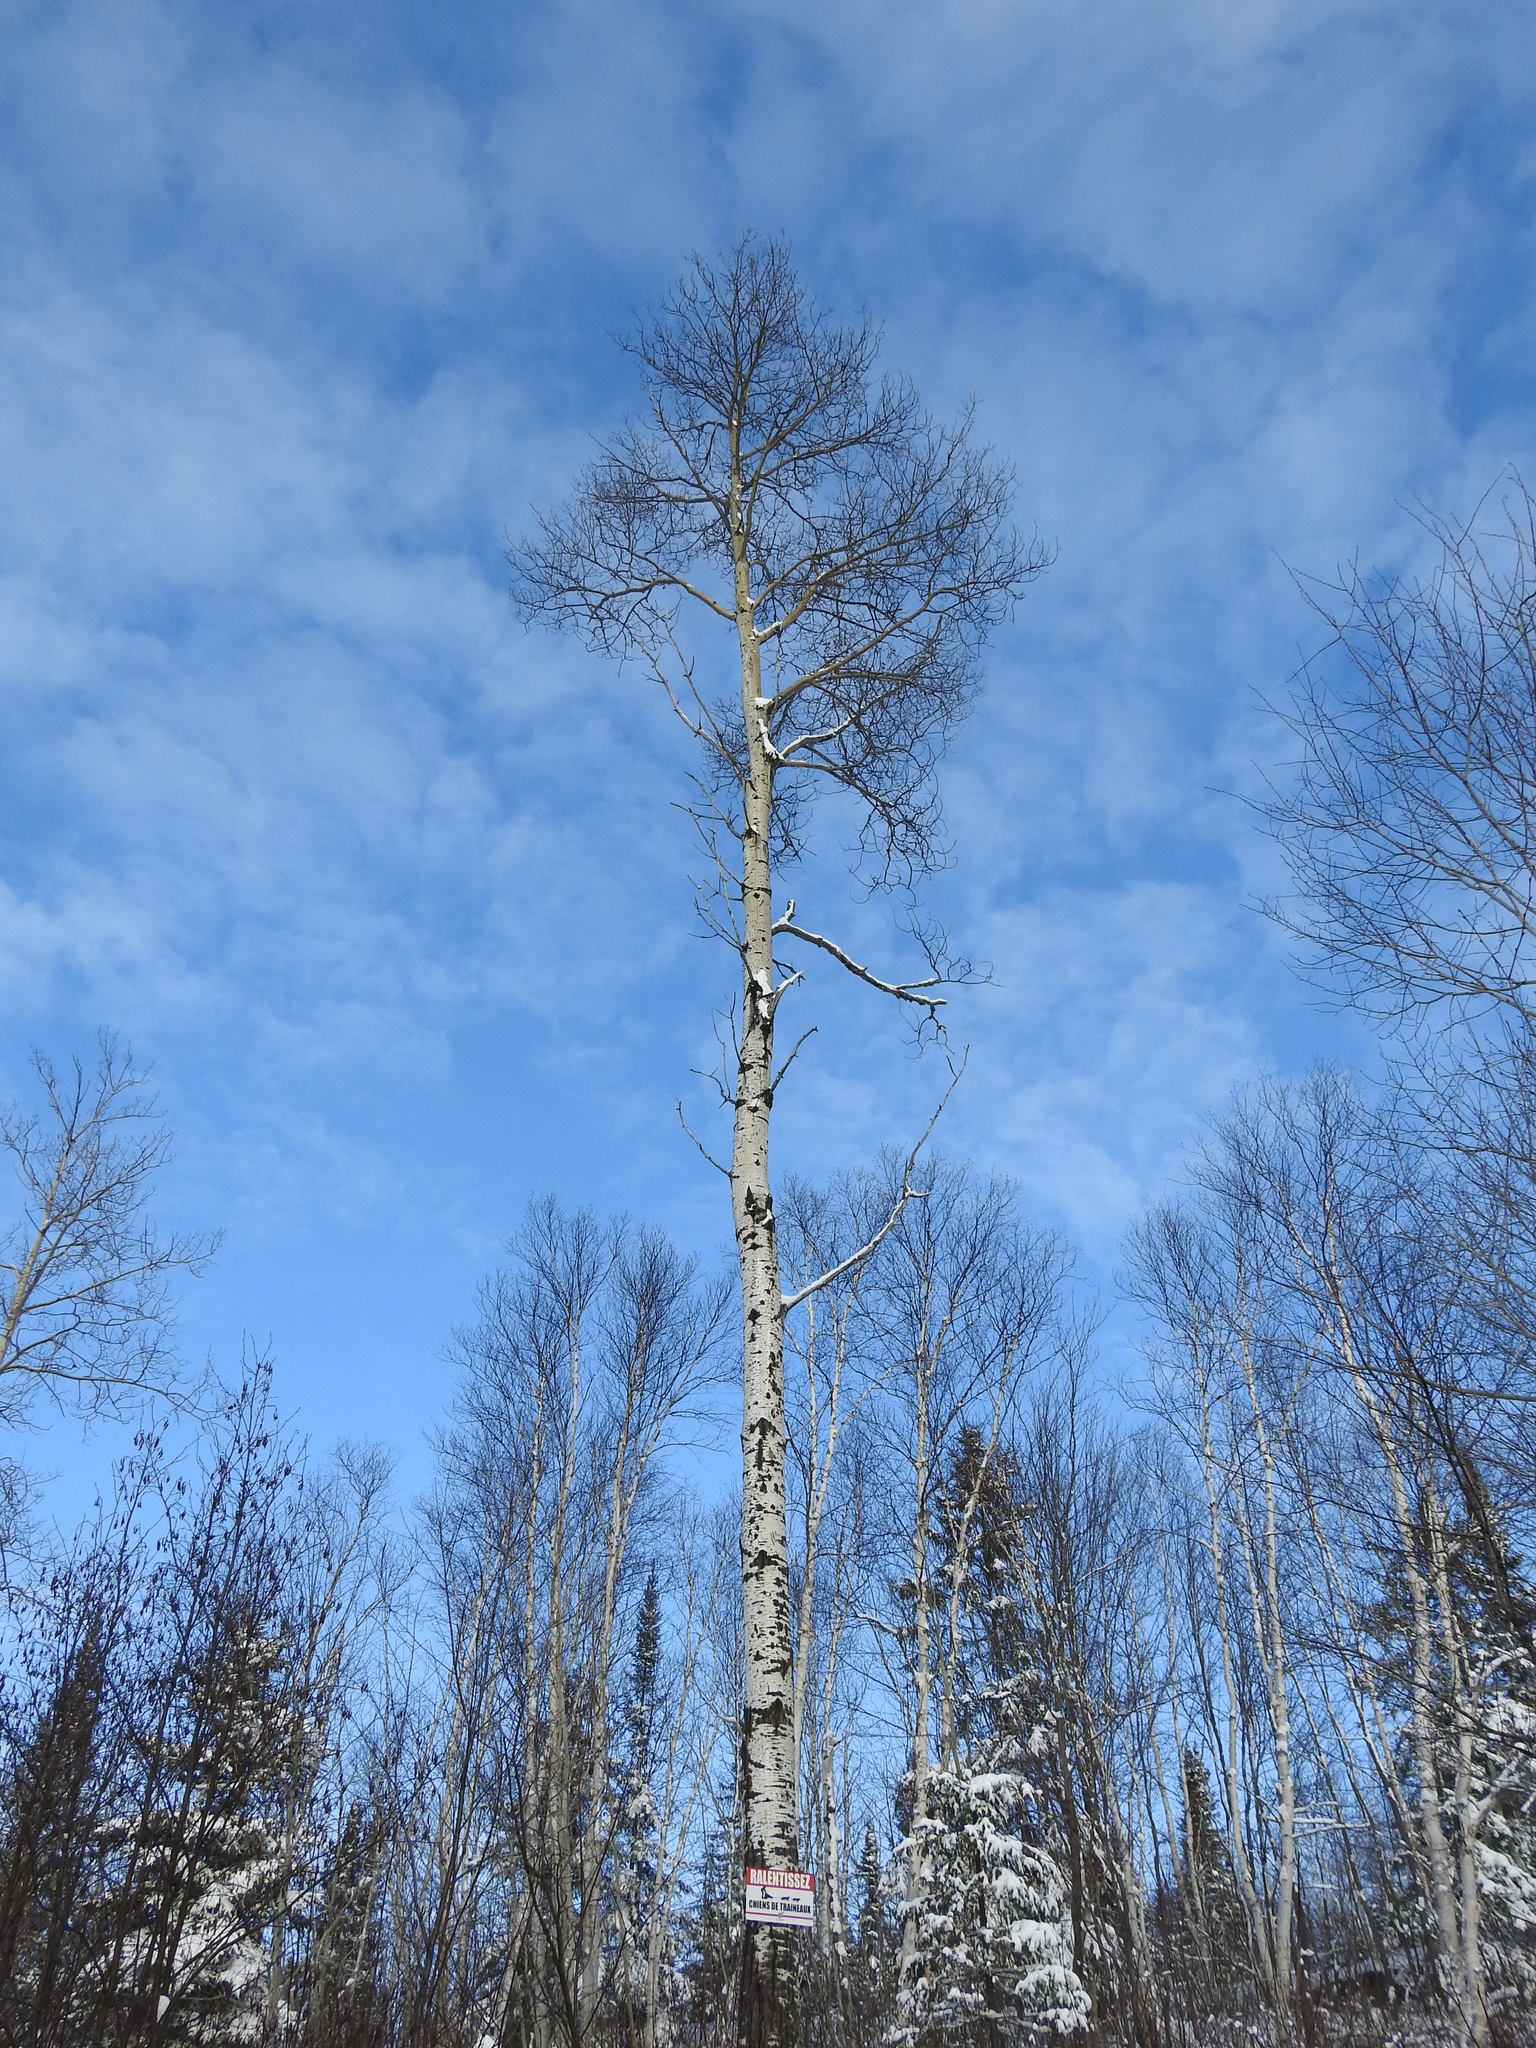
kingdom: Plantae
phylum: Tracheophyta
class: Magnoliopsida
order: Malpighiales
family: Salicaceae
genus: Populus
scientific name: Populus tremuloides
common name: Quaking aspen
